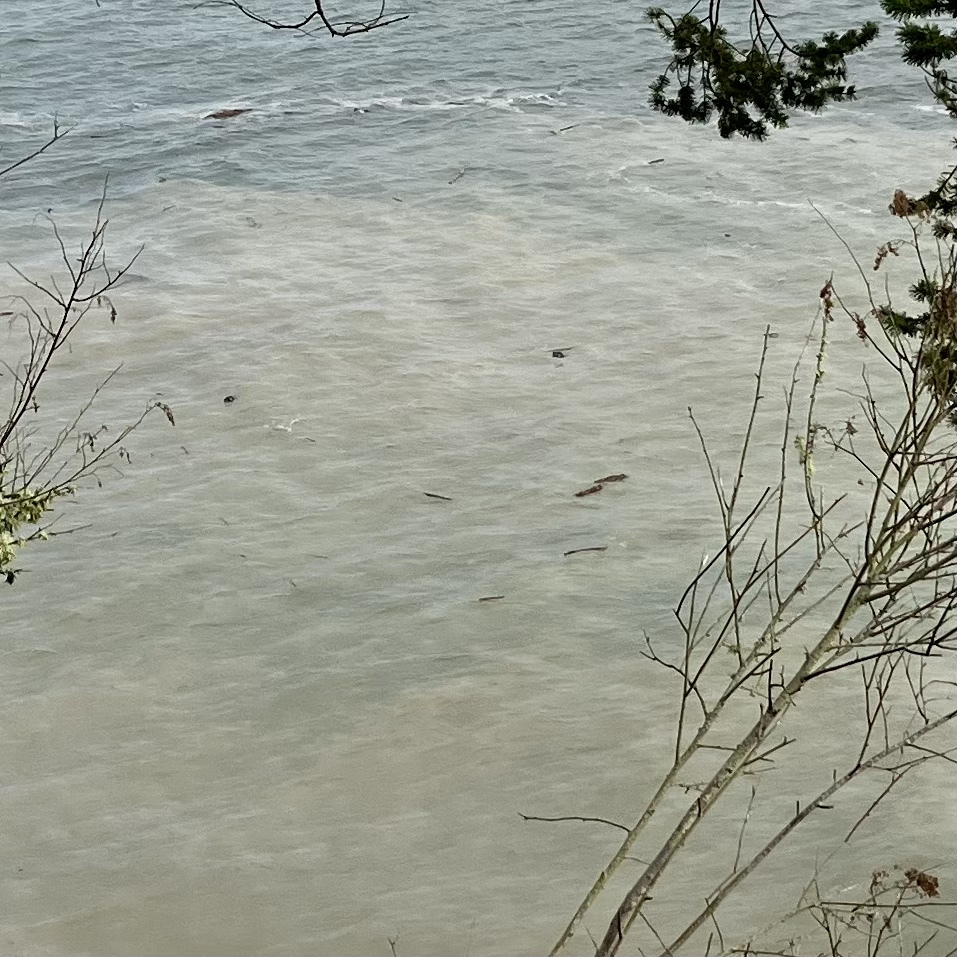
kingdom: Animalia
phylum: Chordata
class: Mammalia
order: Carnivora
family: Phocidae
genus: Phoca
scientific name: Phoca vitulina
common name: Harbor seal
